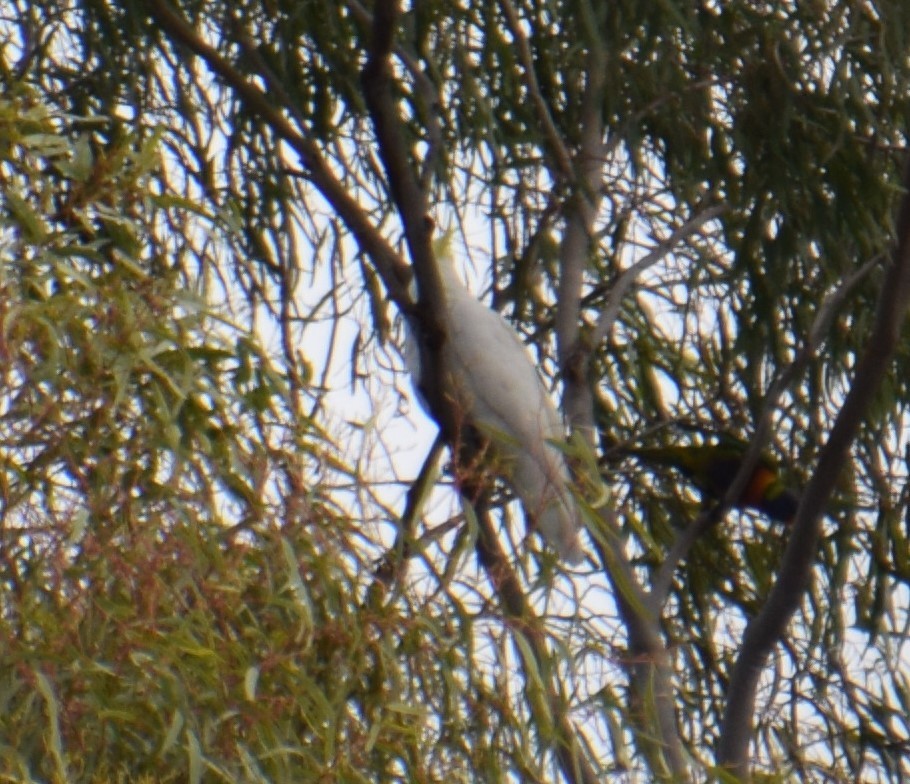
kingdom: Animalia
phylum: Chordata
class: Aves
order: Psittaciformes
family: Psittacidae
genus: Cacatua
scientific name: Cacatua galerita
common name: Sulphur-crested cockatoo
